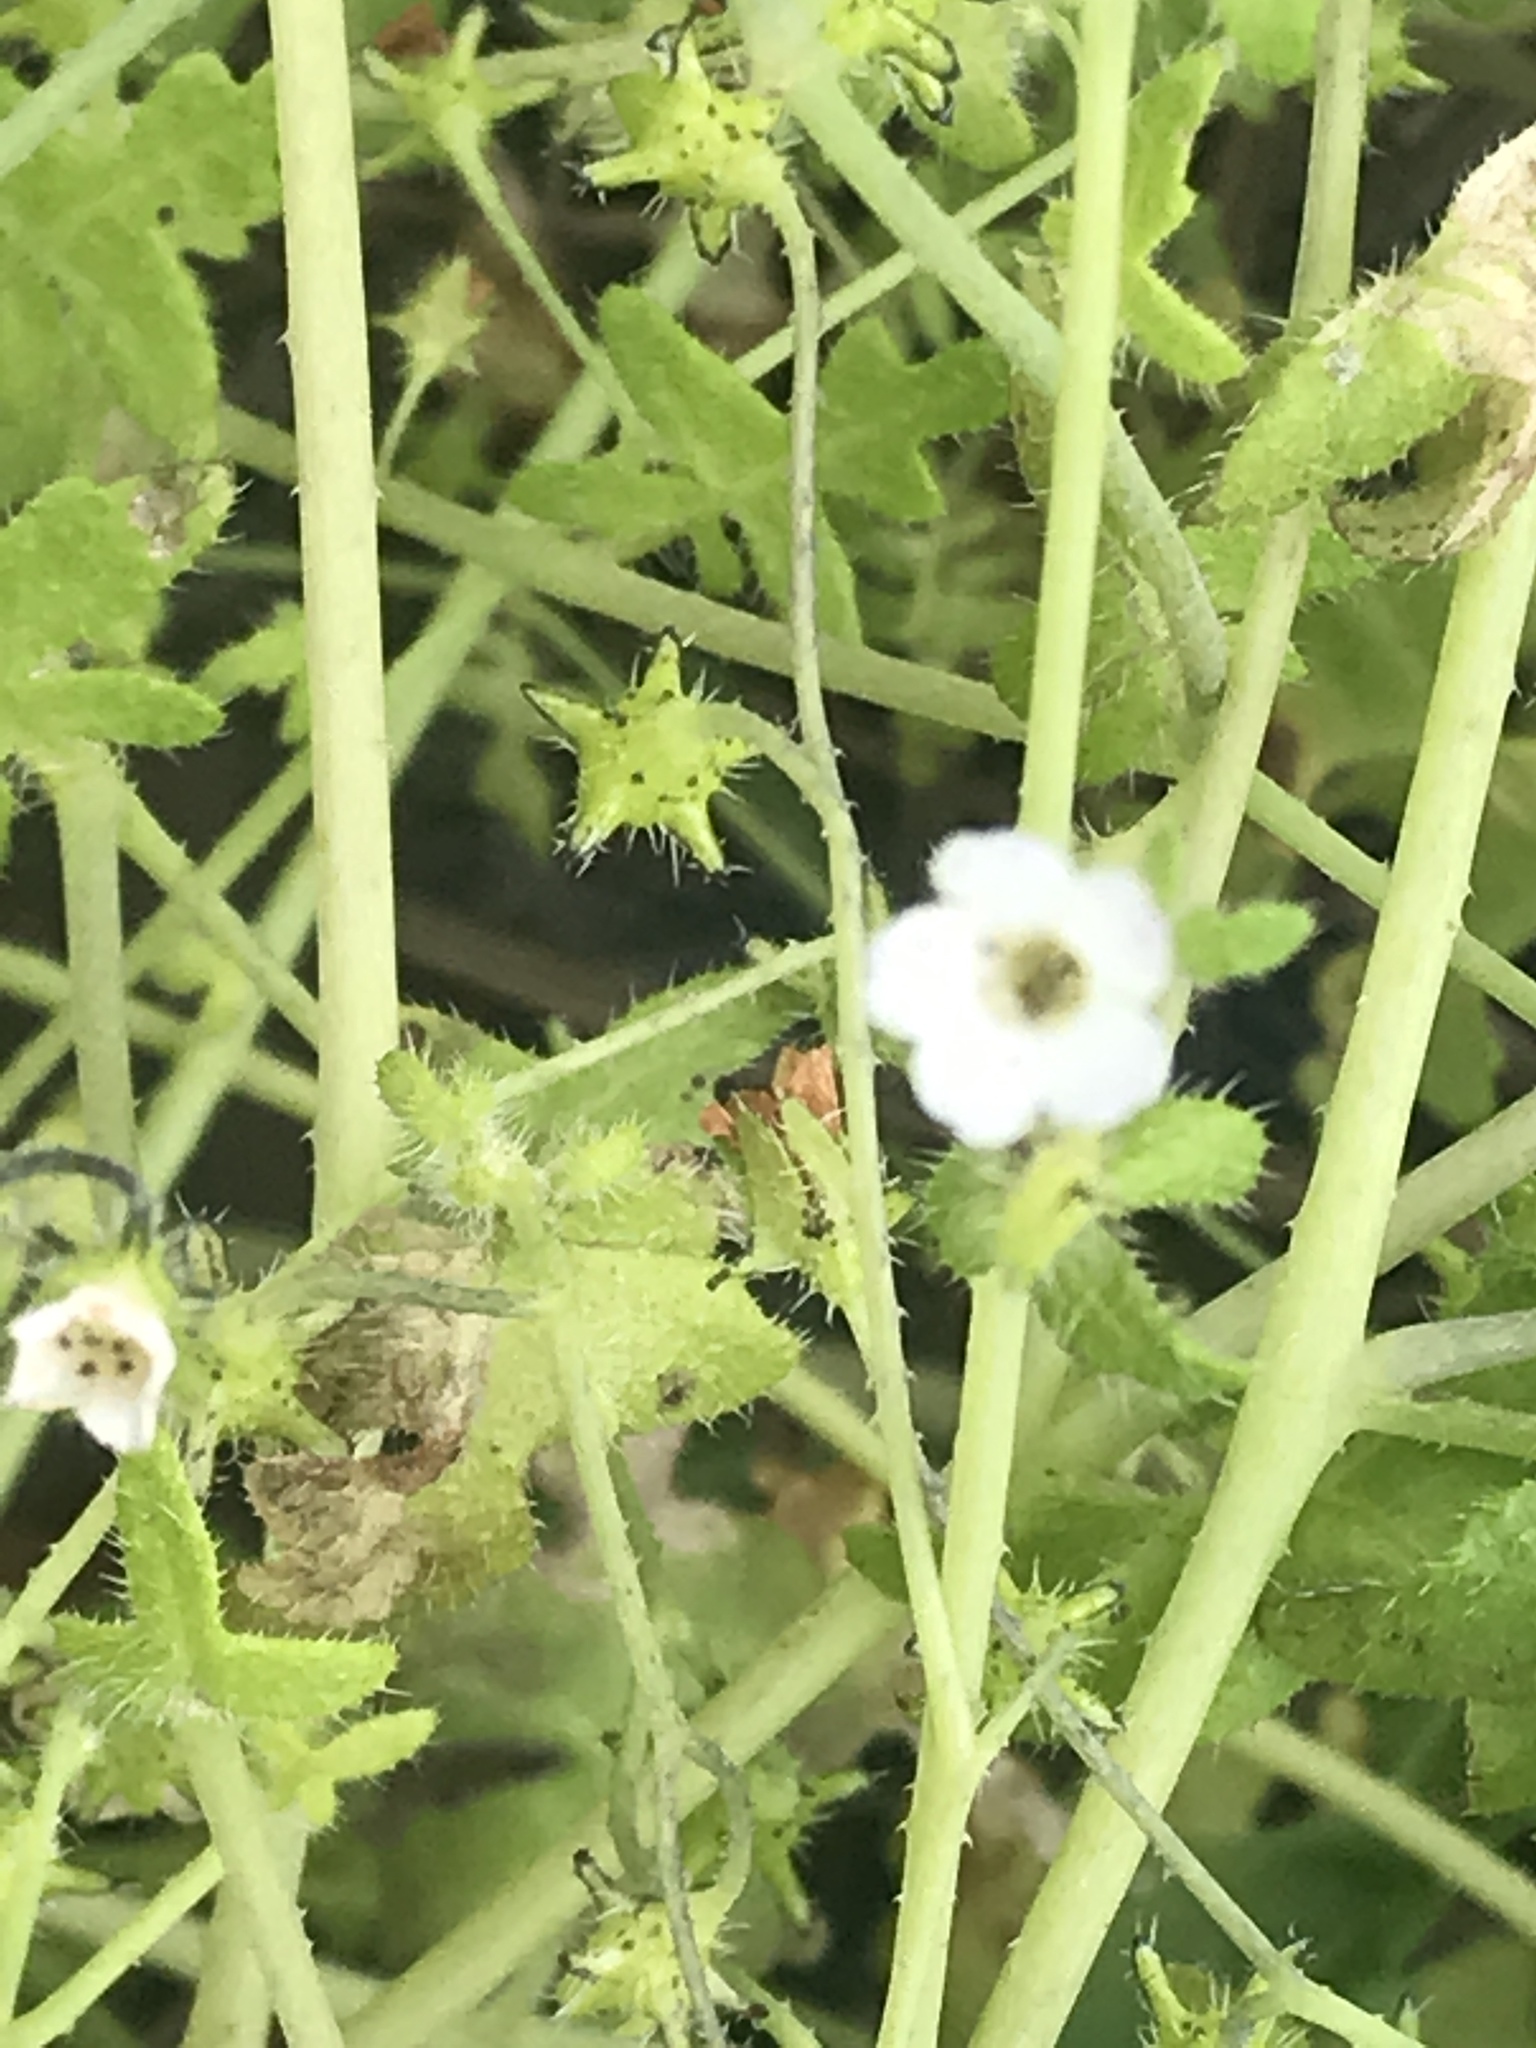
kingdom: Plantae
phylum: Tracheophyta
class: Magnoliopsida
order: Boraginales
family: Hydrophyllaceae
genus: Pholistoma
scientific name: Pholistoma racemosum
